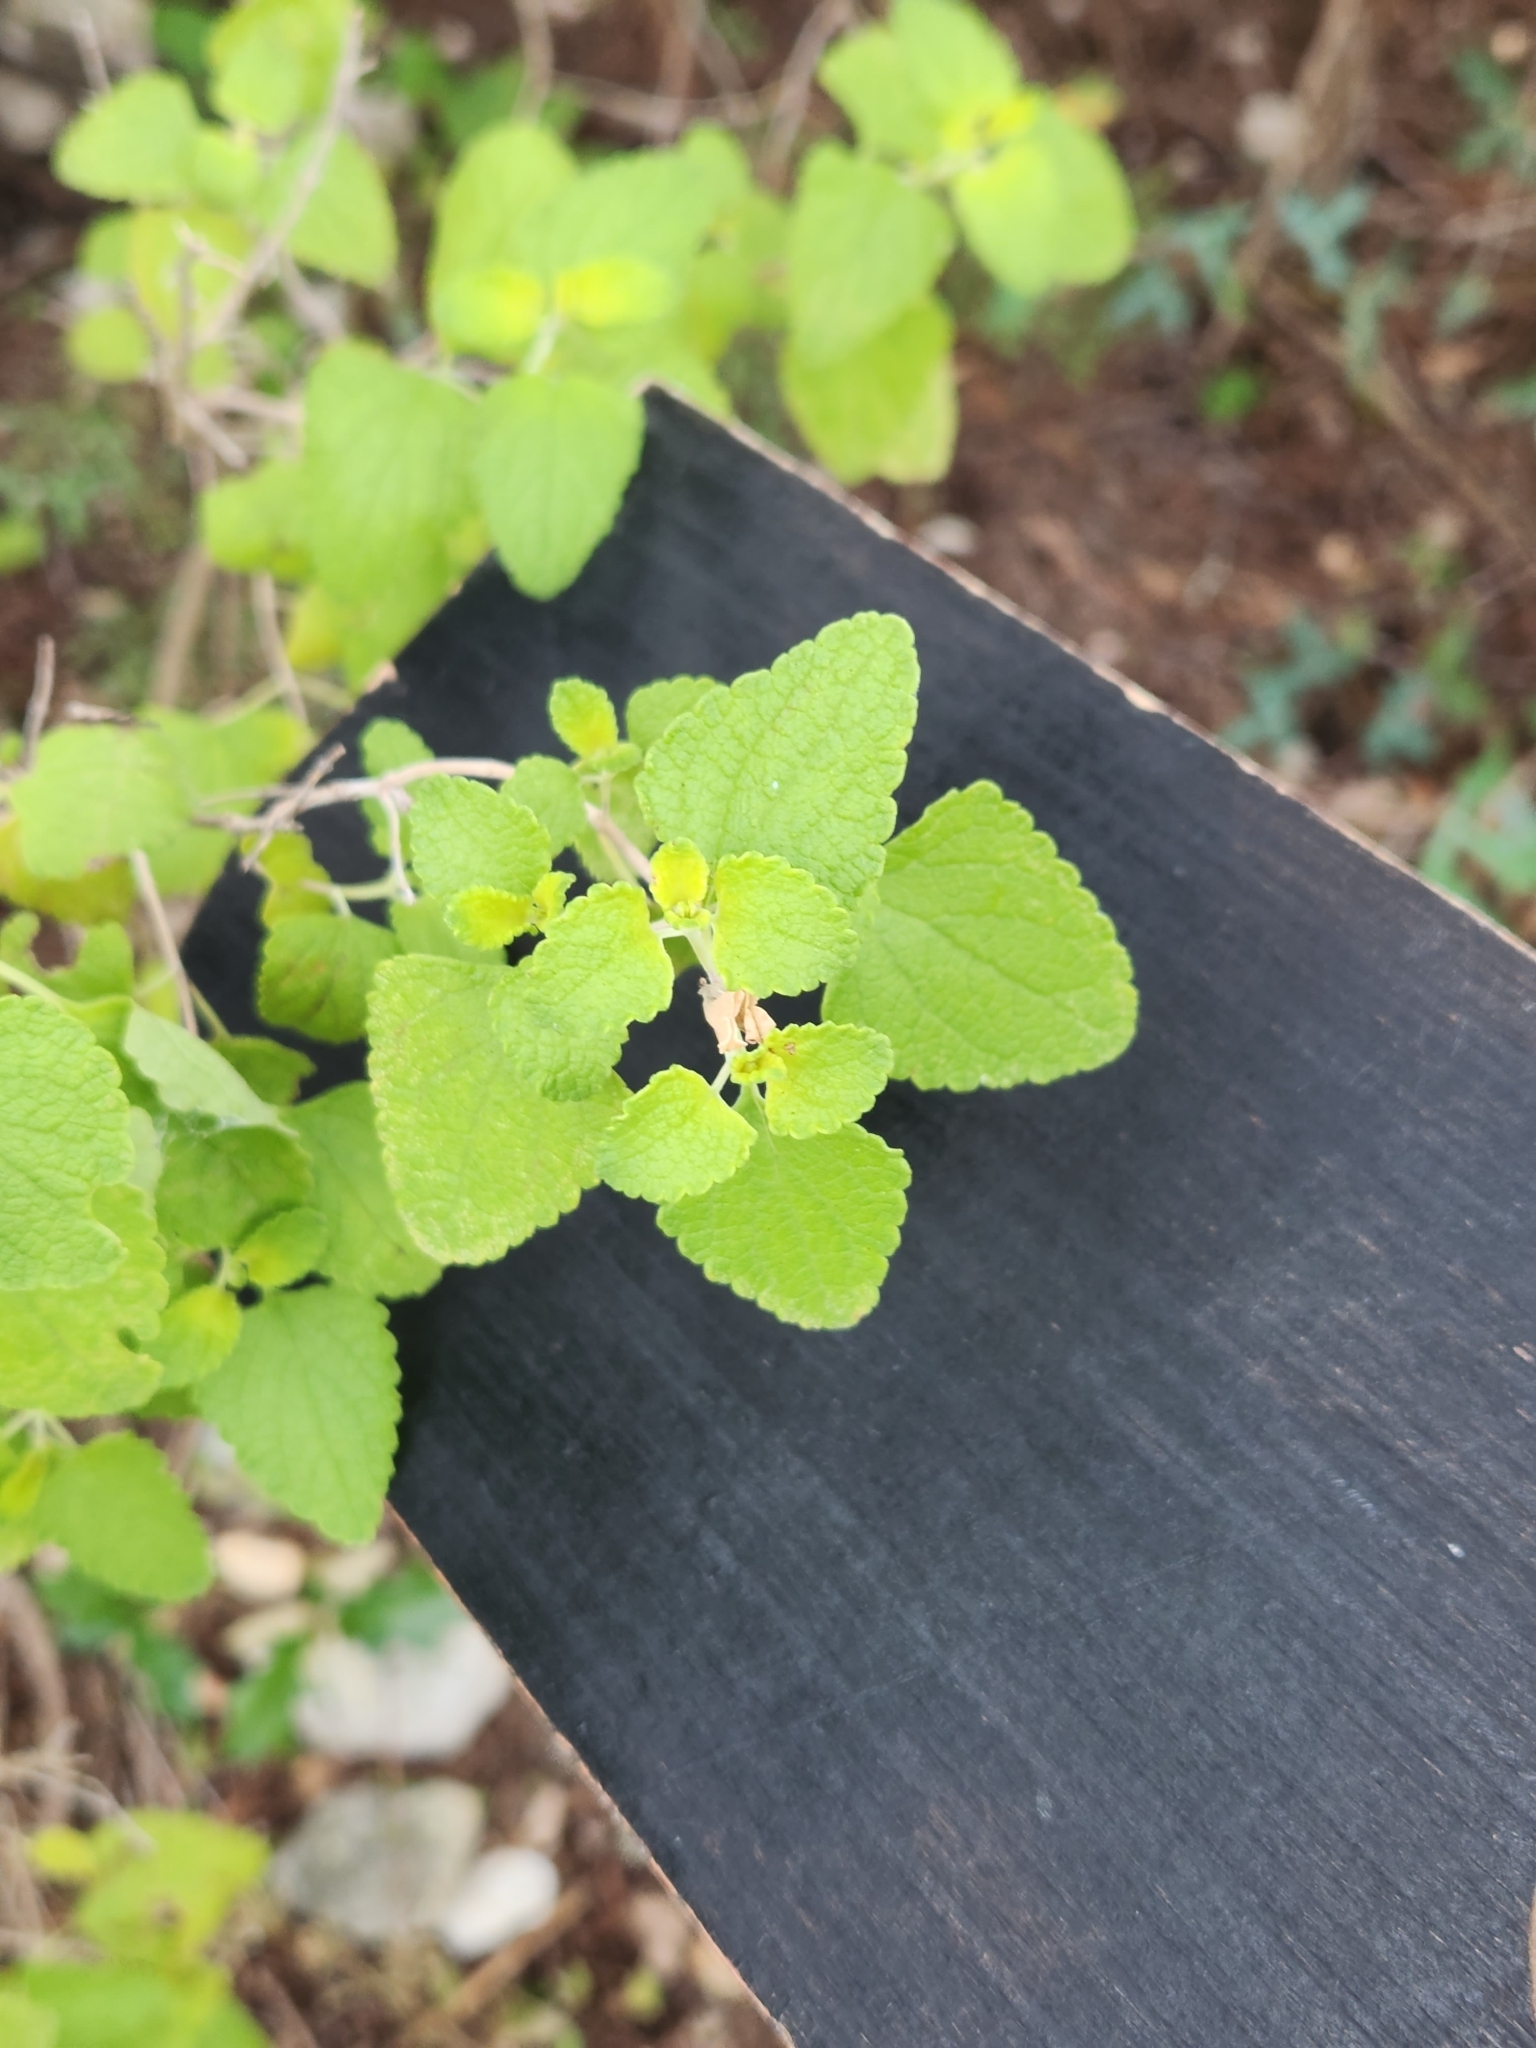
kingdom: Plantae
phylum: Tracheophyta
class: Magnoliopsida
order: Lamiales
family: Lamiaceae
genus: Salvia
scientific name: Salvia ballotiflora
